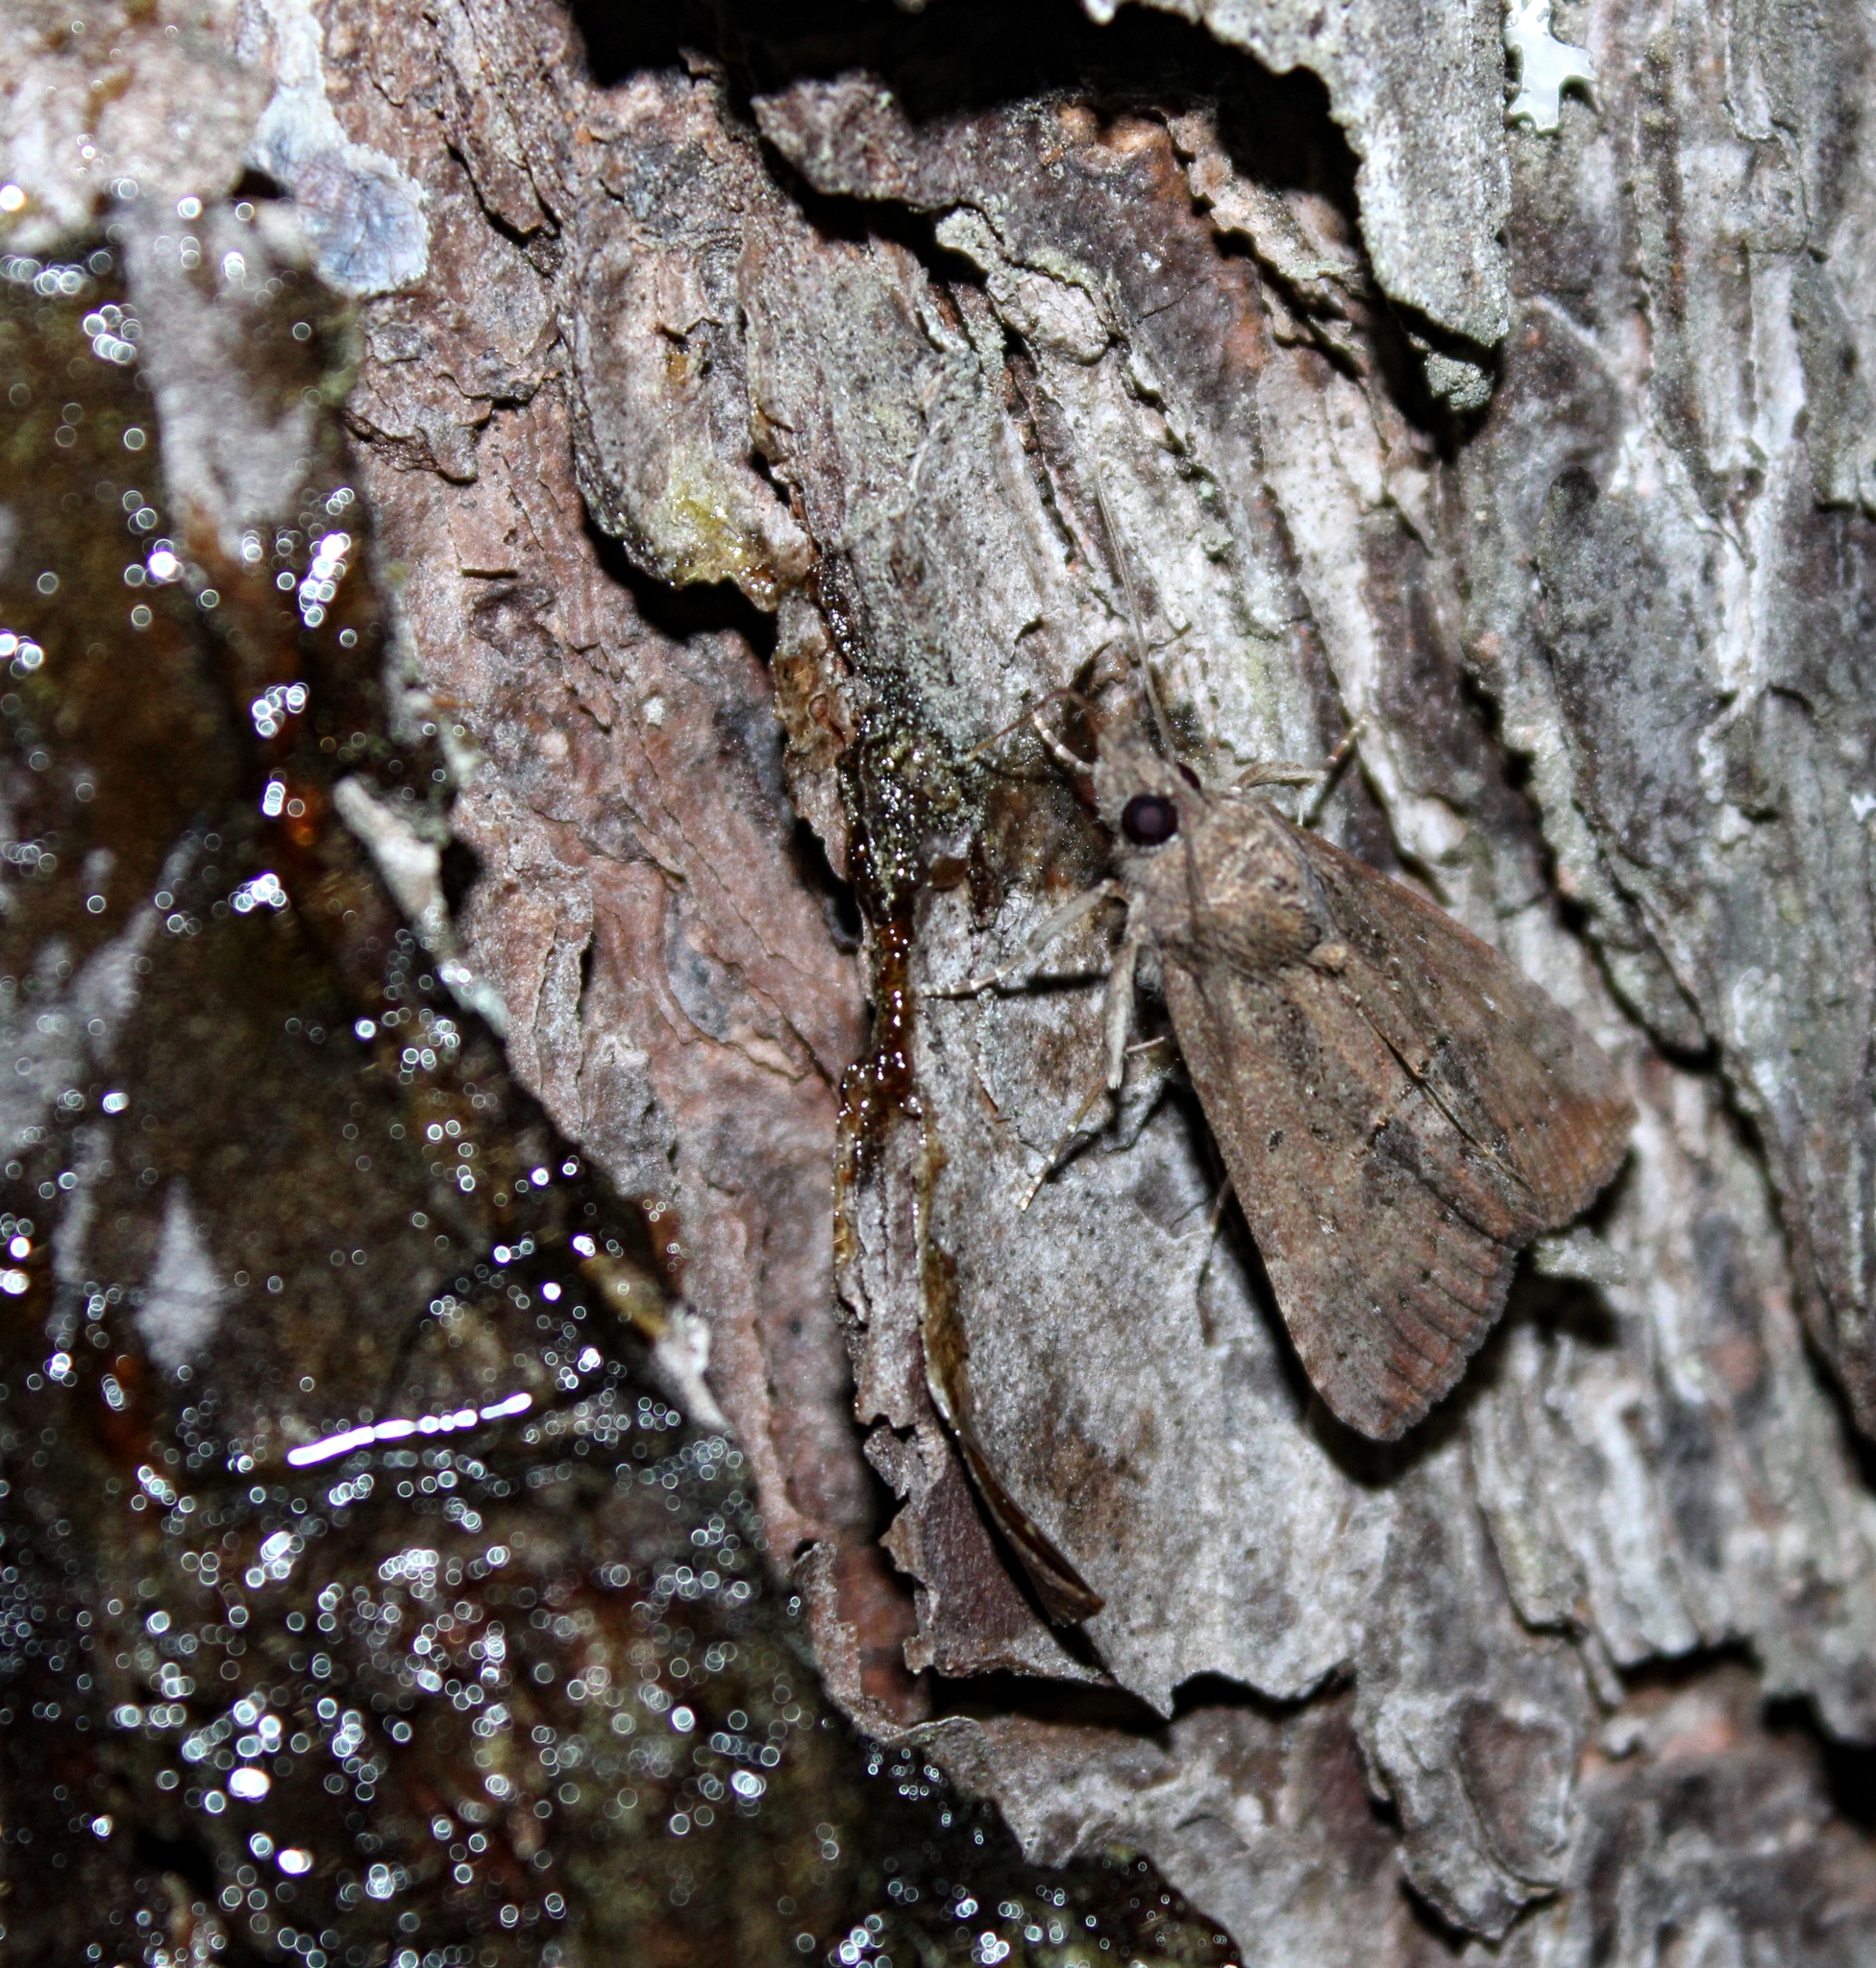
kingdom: Animalia
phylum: Arthropoda
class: Insecta
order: Lepidoptera
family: Erebidae
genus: Hypena
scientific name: Hypena scabra
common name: Green cloverworm
